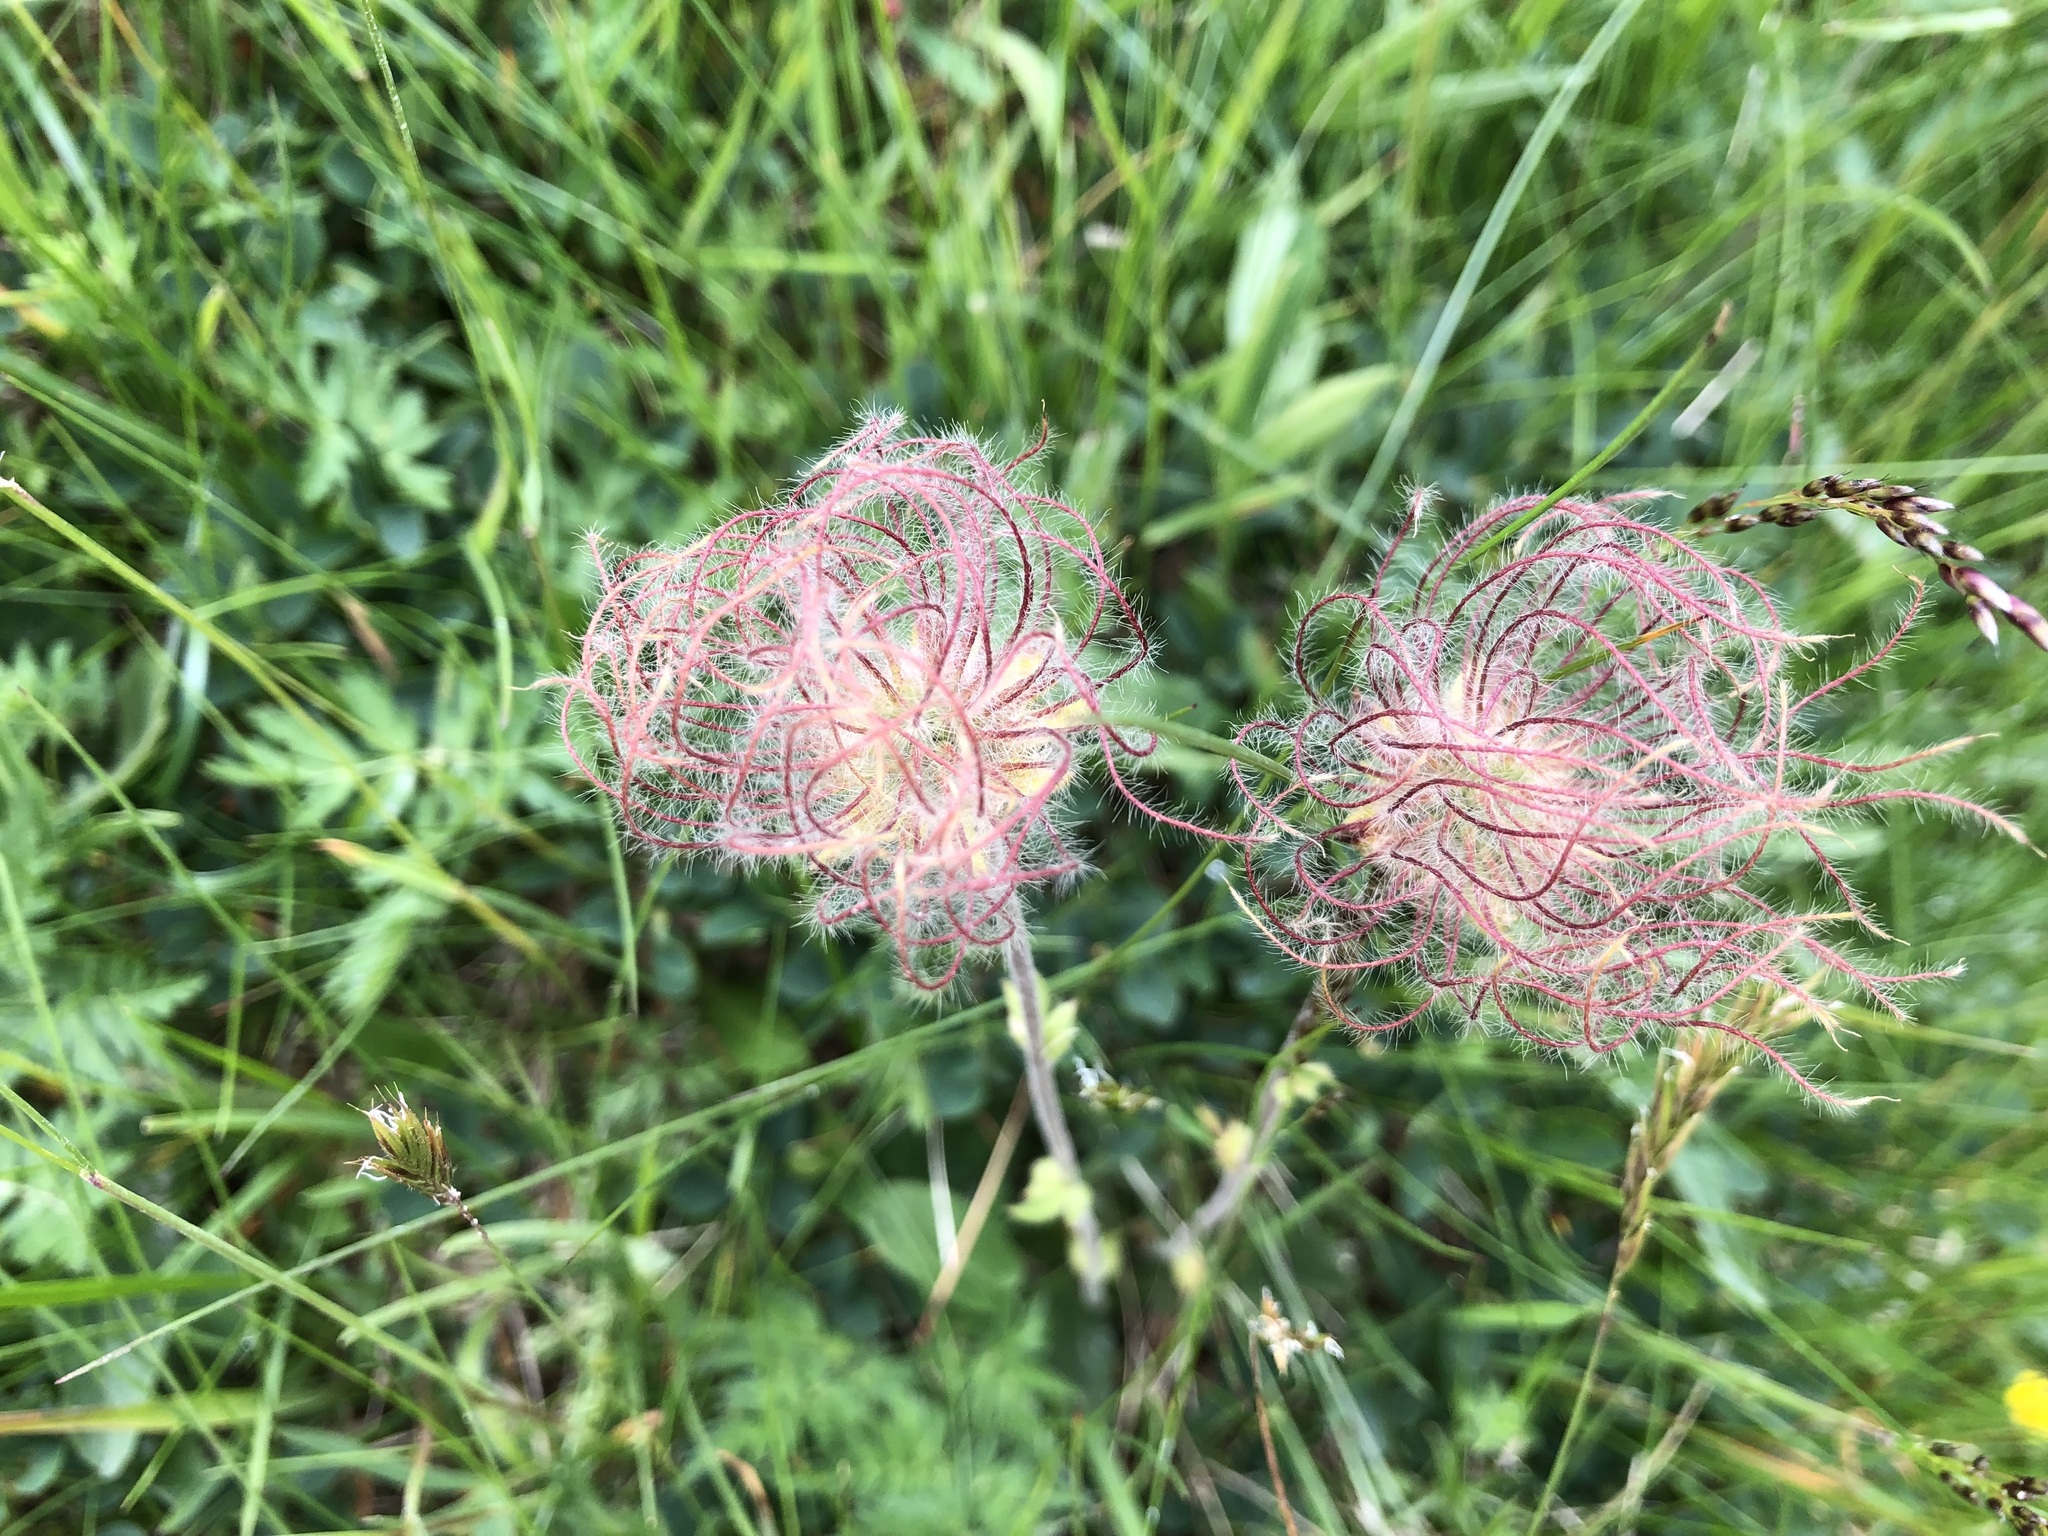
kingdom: Plantae
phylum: Tracheophyta
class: Magnoliopsida
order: Rosales
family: Rosaceae
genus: Geum
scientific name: Geum montanum
